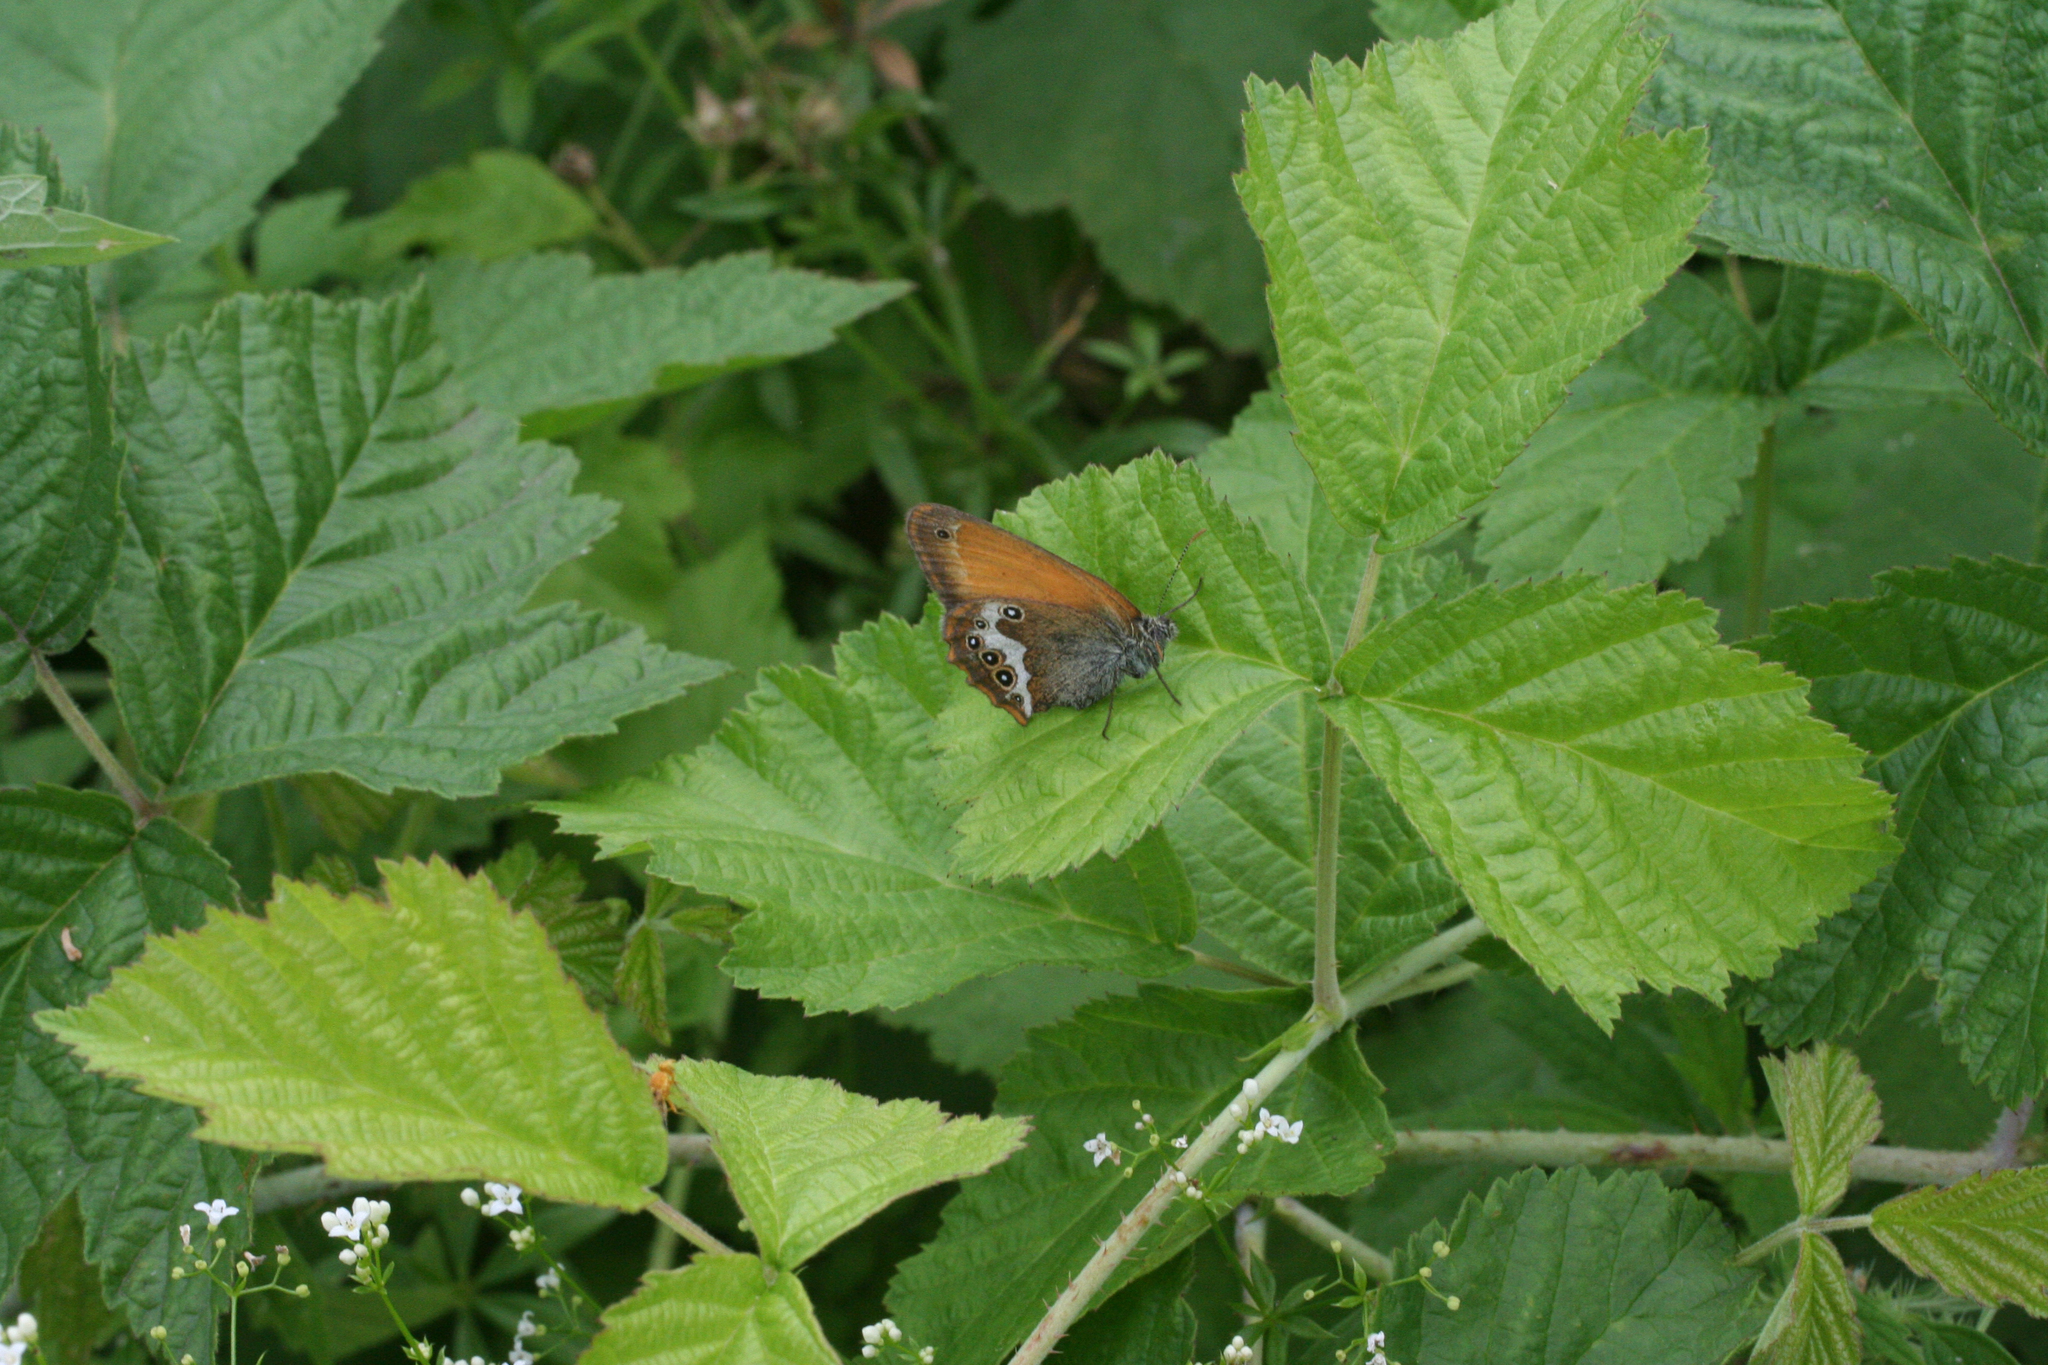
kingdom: Animalia
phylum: Arthropoda
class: Insecta
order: Lepidoptera
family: Nymphalidae
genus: Coenonympha
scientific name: Coenonympha arcania
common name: Pearly heath
